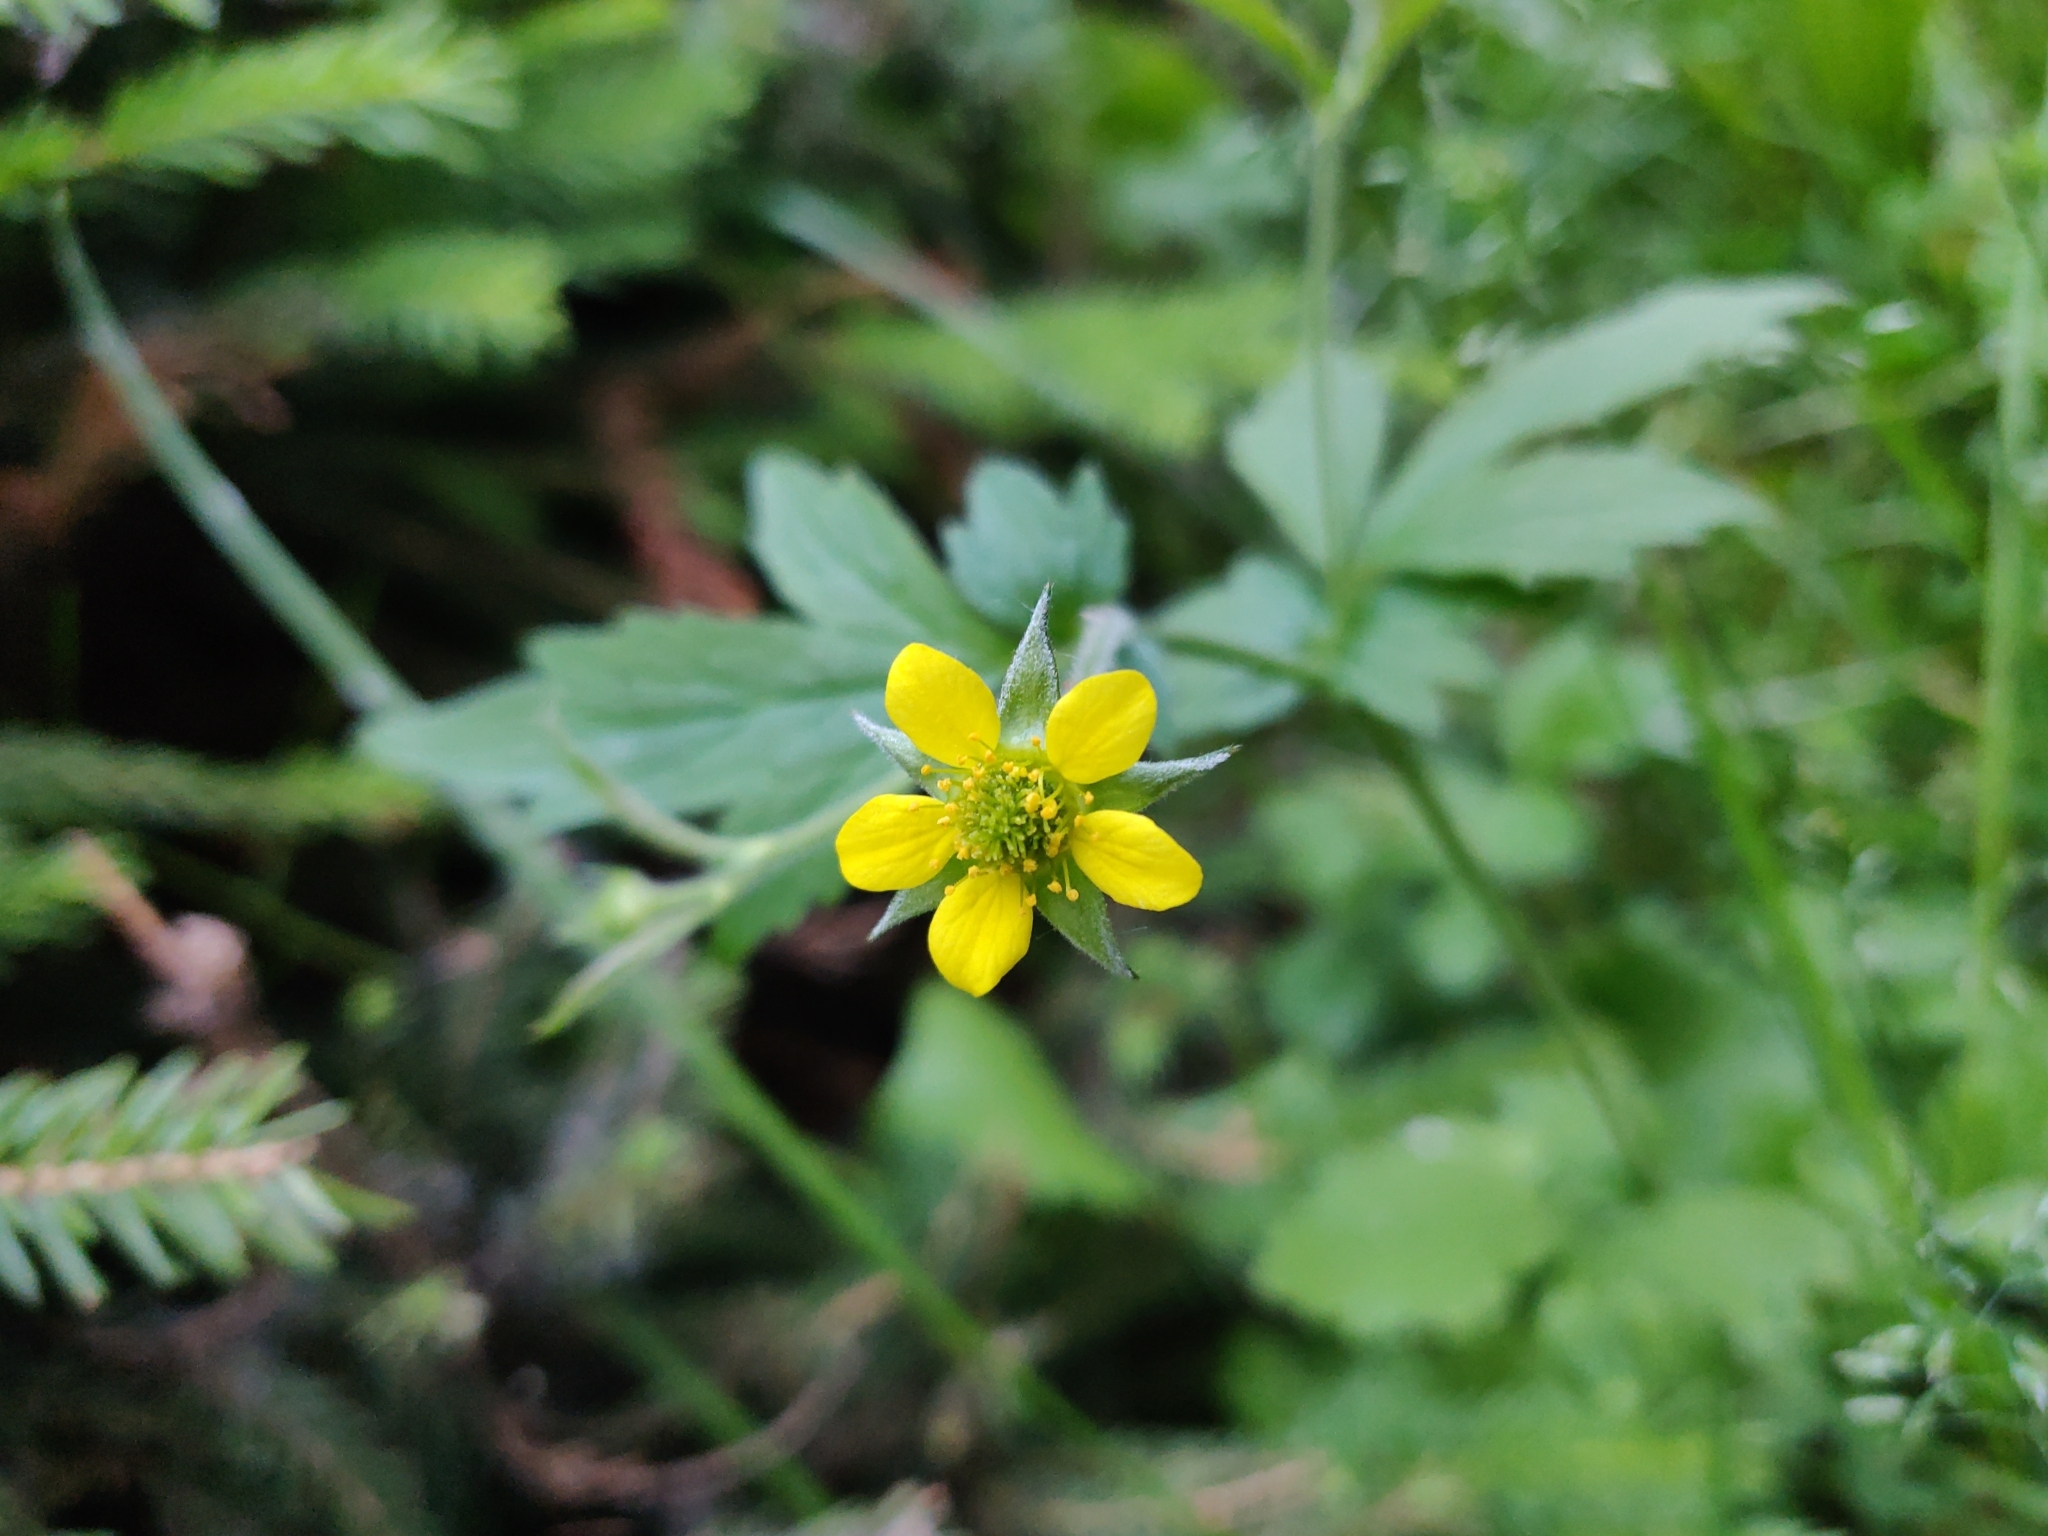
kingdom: Plantae
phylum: Tracheophyta
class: Magnoliopsida
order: Rosales
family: Rosaceae
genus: Geum
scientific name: Geum urbanum
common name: Wood avens
